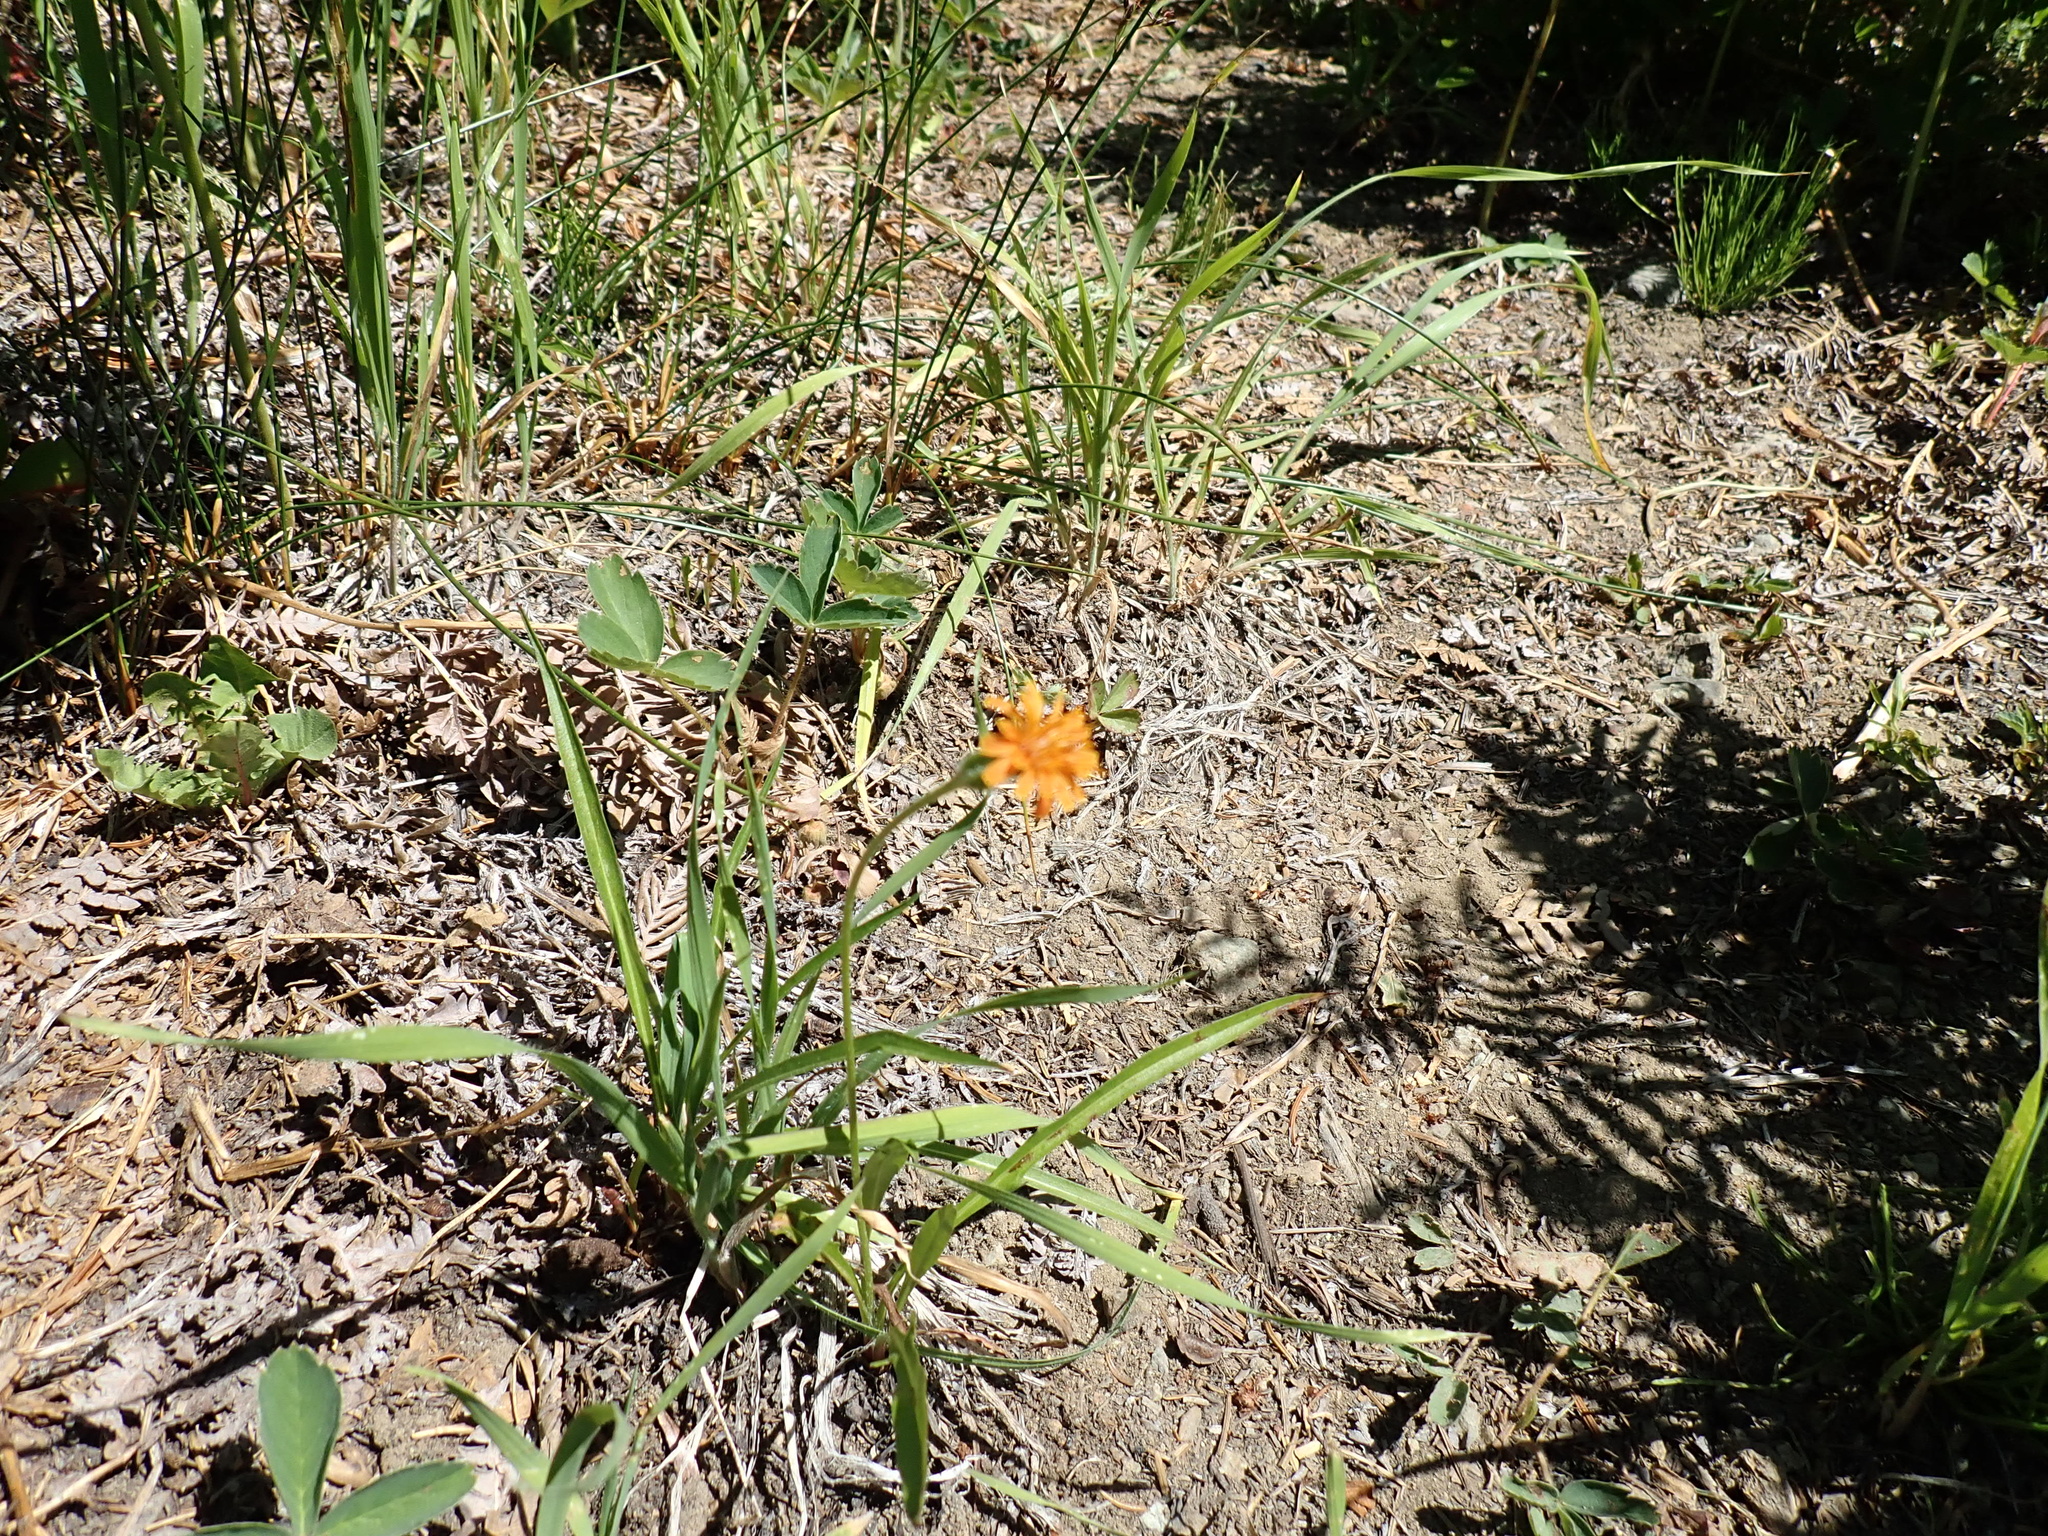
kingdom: Plantae
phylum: Tracheophyta
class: Magnoliopsida
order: Asterales
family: Asteraceae
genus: Agoseris
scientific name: Agoseris aurantiaca
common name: Mountain agoseris
